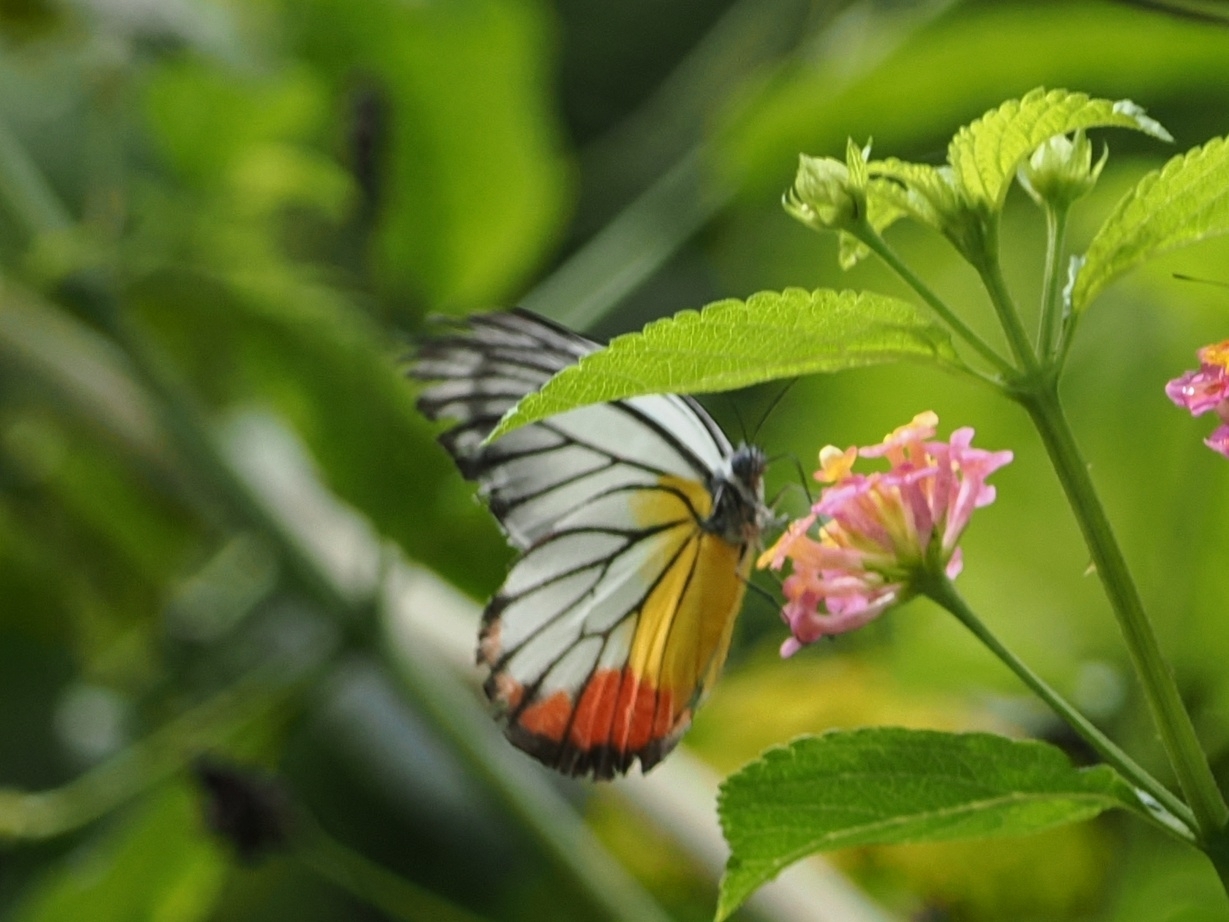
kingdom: Animalia
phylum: Arthropoda
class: Insecta
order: Lepidoptera
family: Pieridae
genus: Delias
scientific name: Delias hyparete
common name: Painted jezebel
